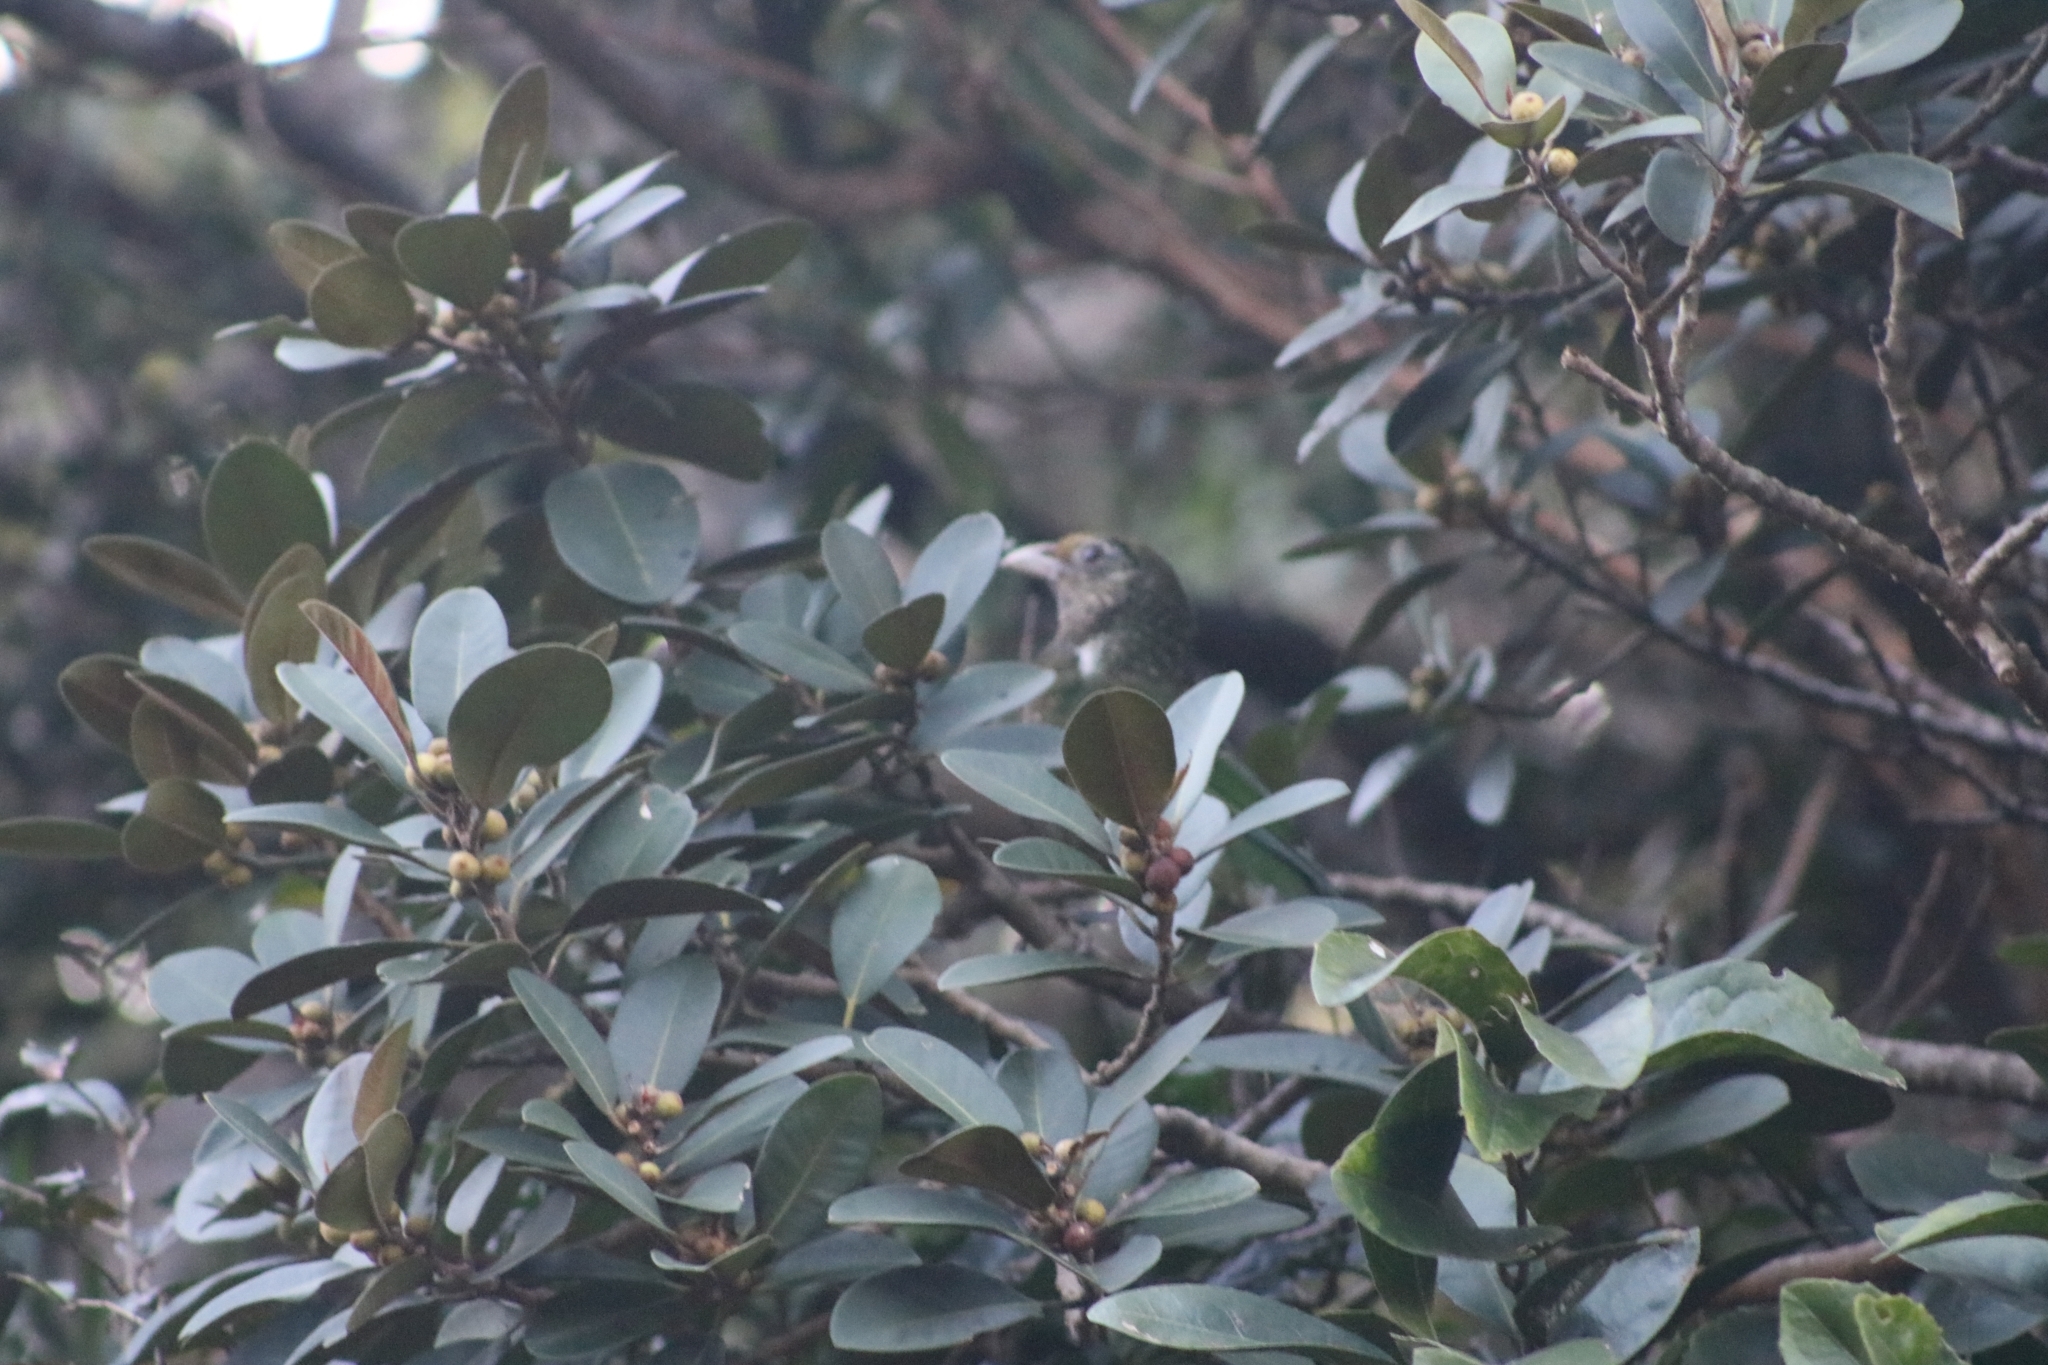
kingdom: Animalia
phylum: Chordata
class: Aves
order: Passeriformes
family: Ptilonorhynchidae
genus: Ailuroedus
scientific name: Ailuroedus crassirostris
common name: Green catbird
